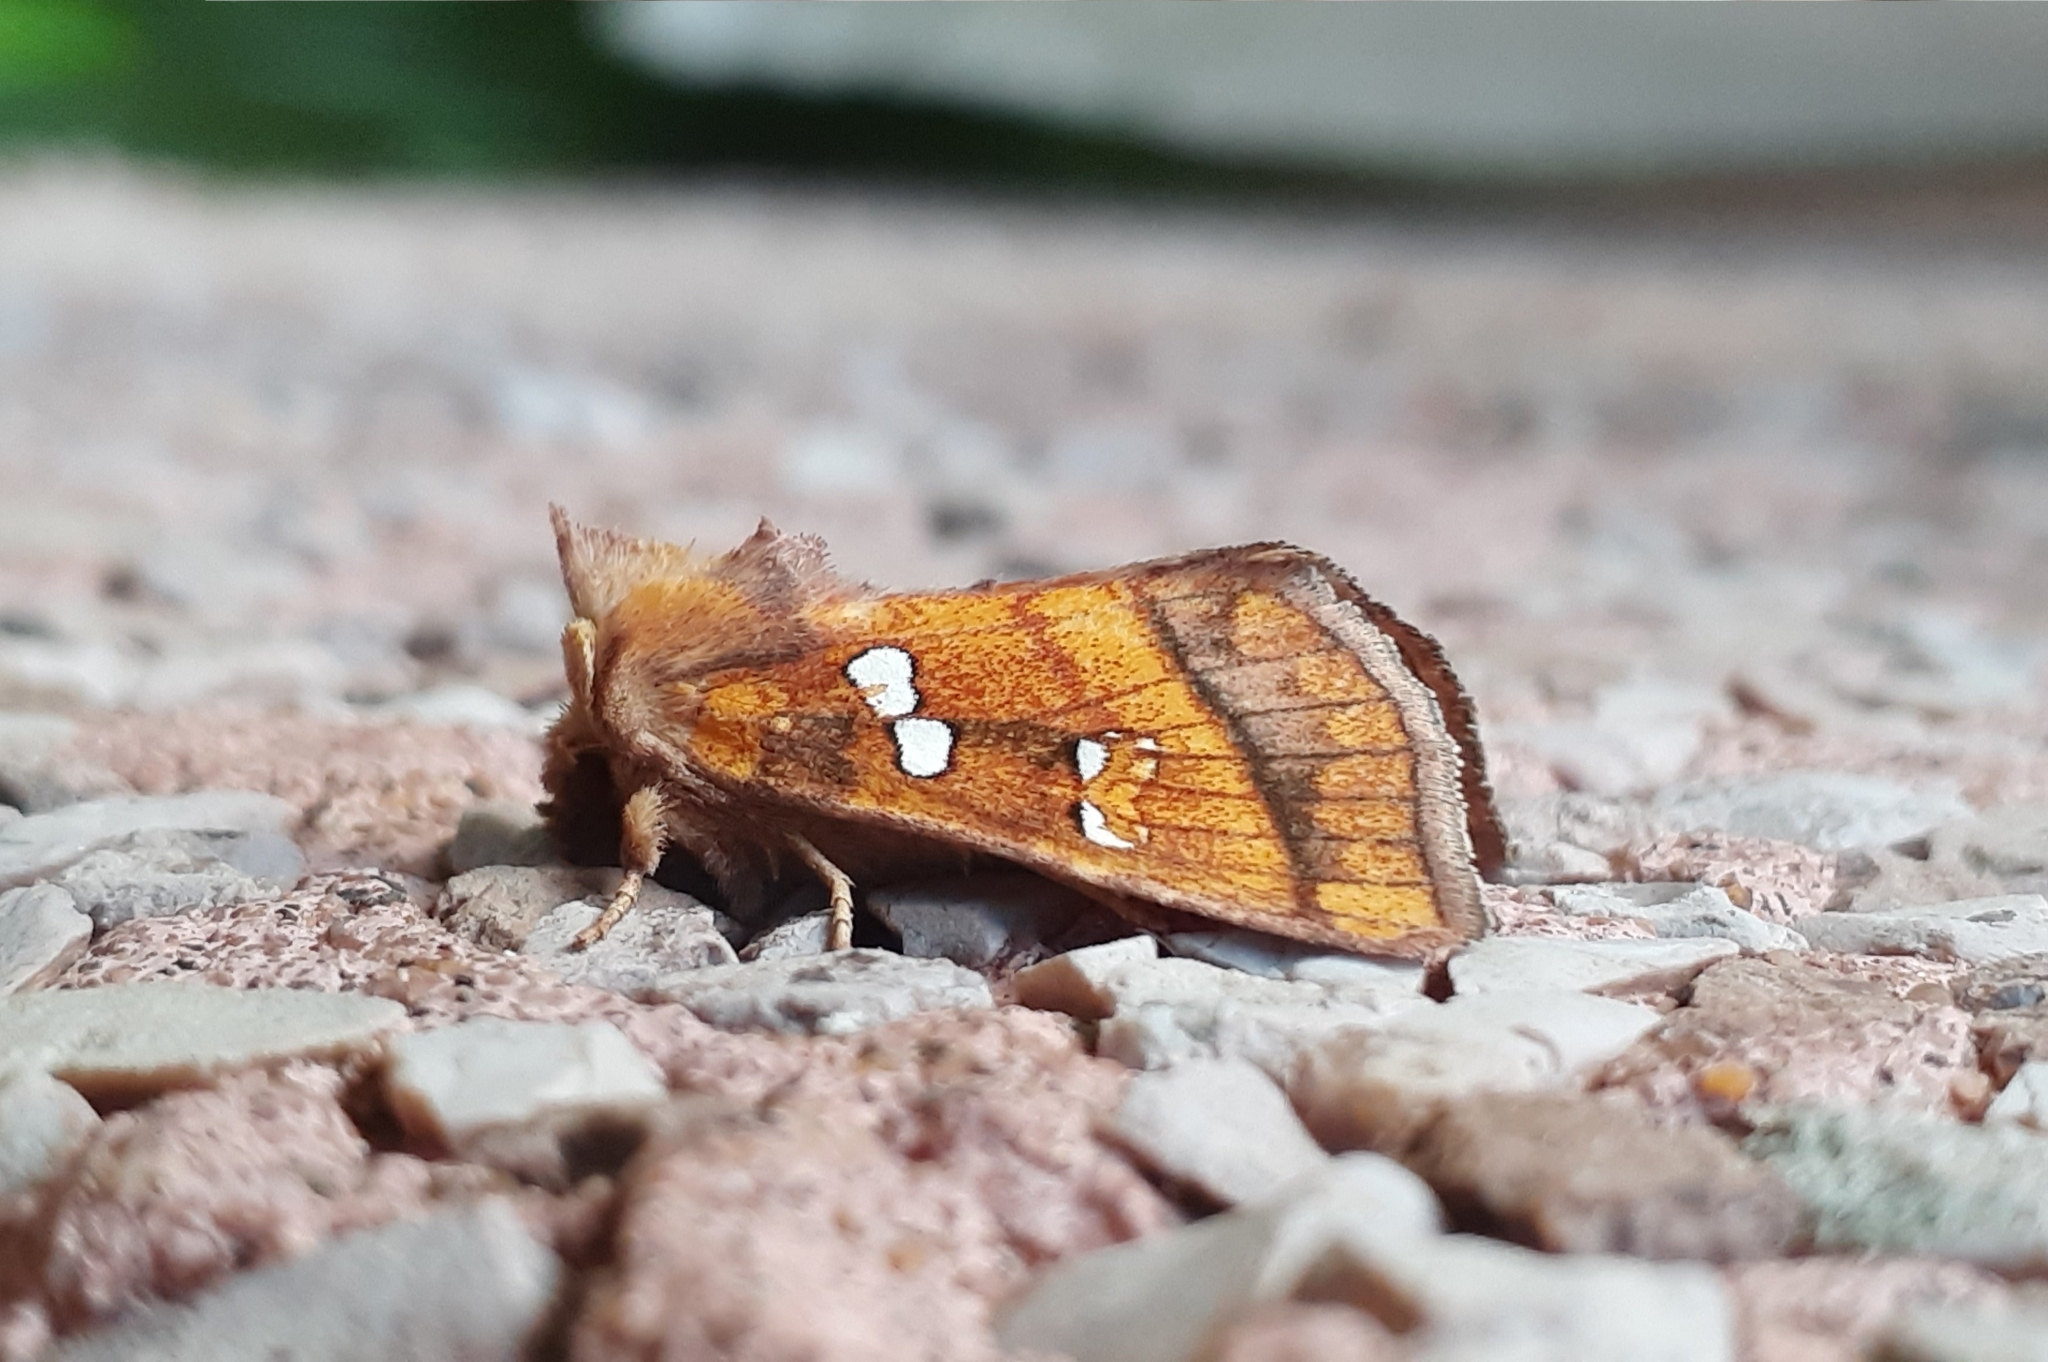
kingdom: Animalia
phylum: Arthropoda
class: Insecta
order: Lepidoptera
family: Noctuidae
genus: Papaipema
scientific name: Papaipema pterisii
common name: Bracken borer moth
